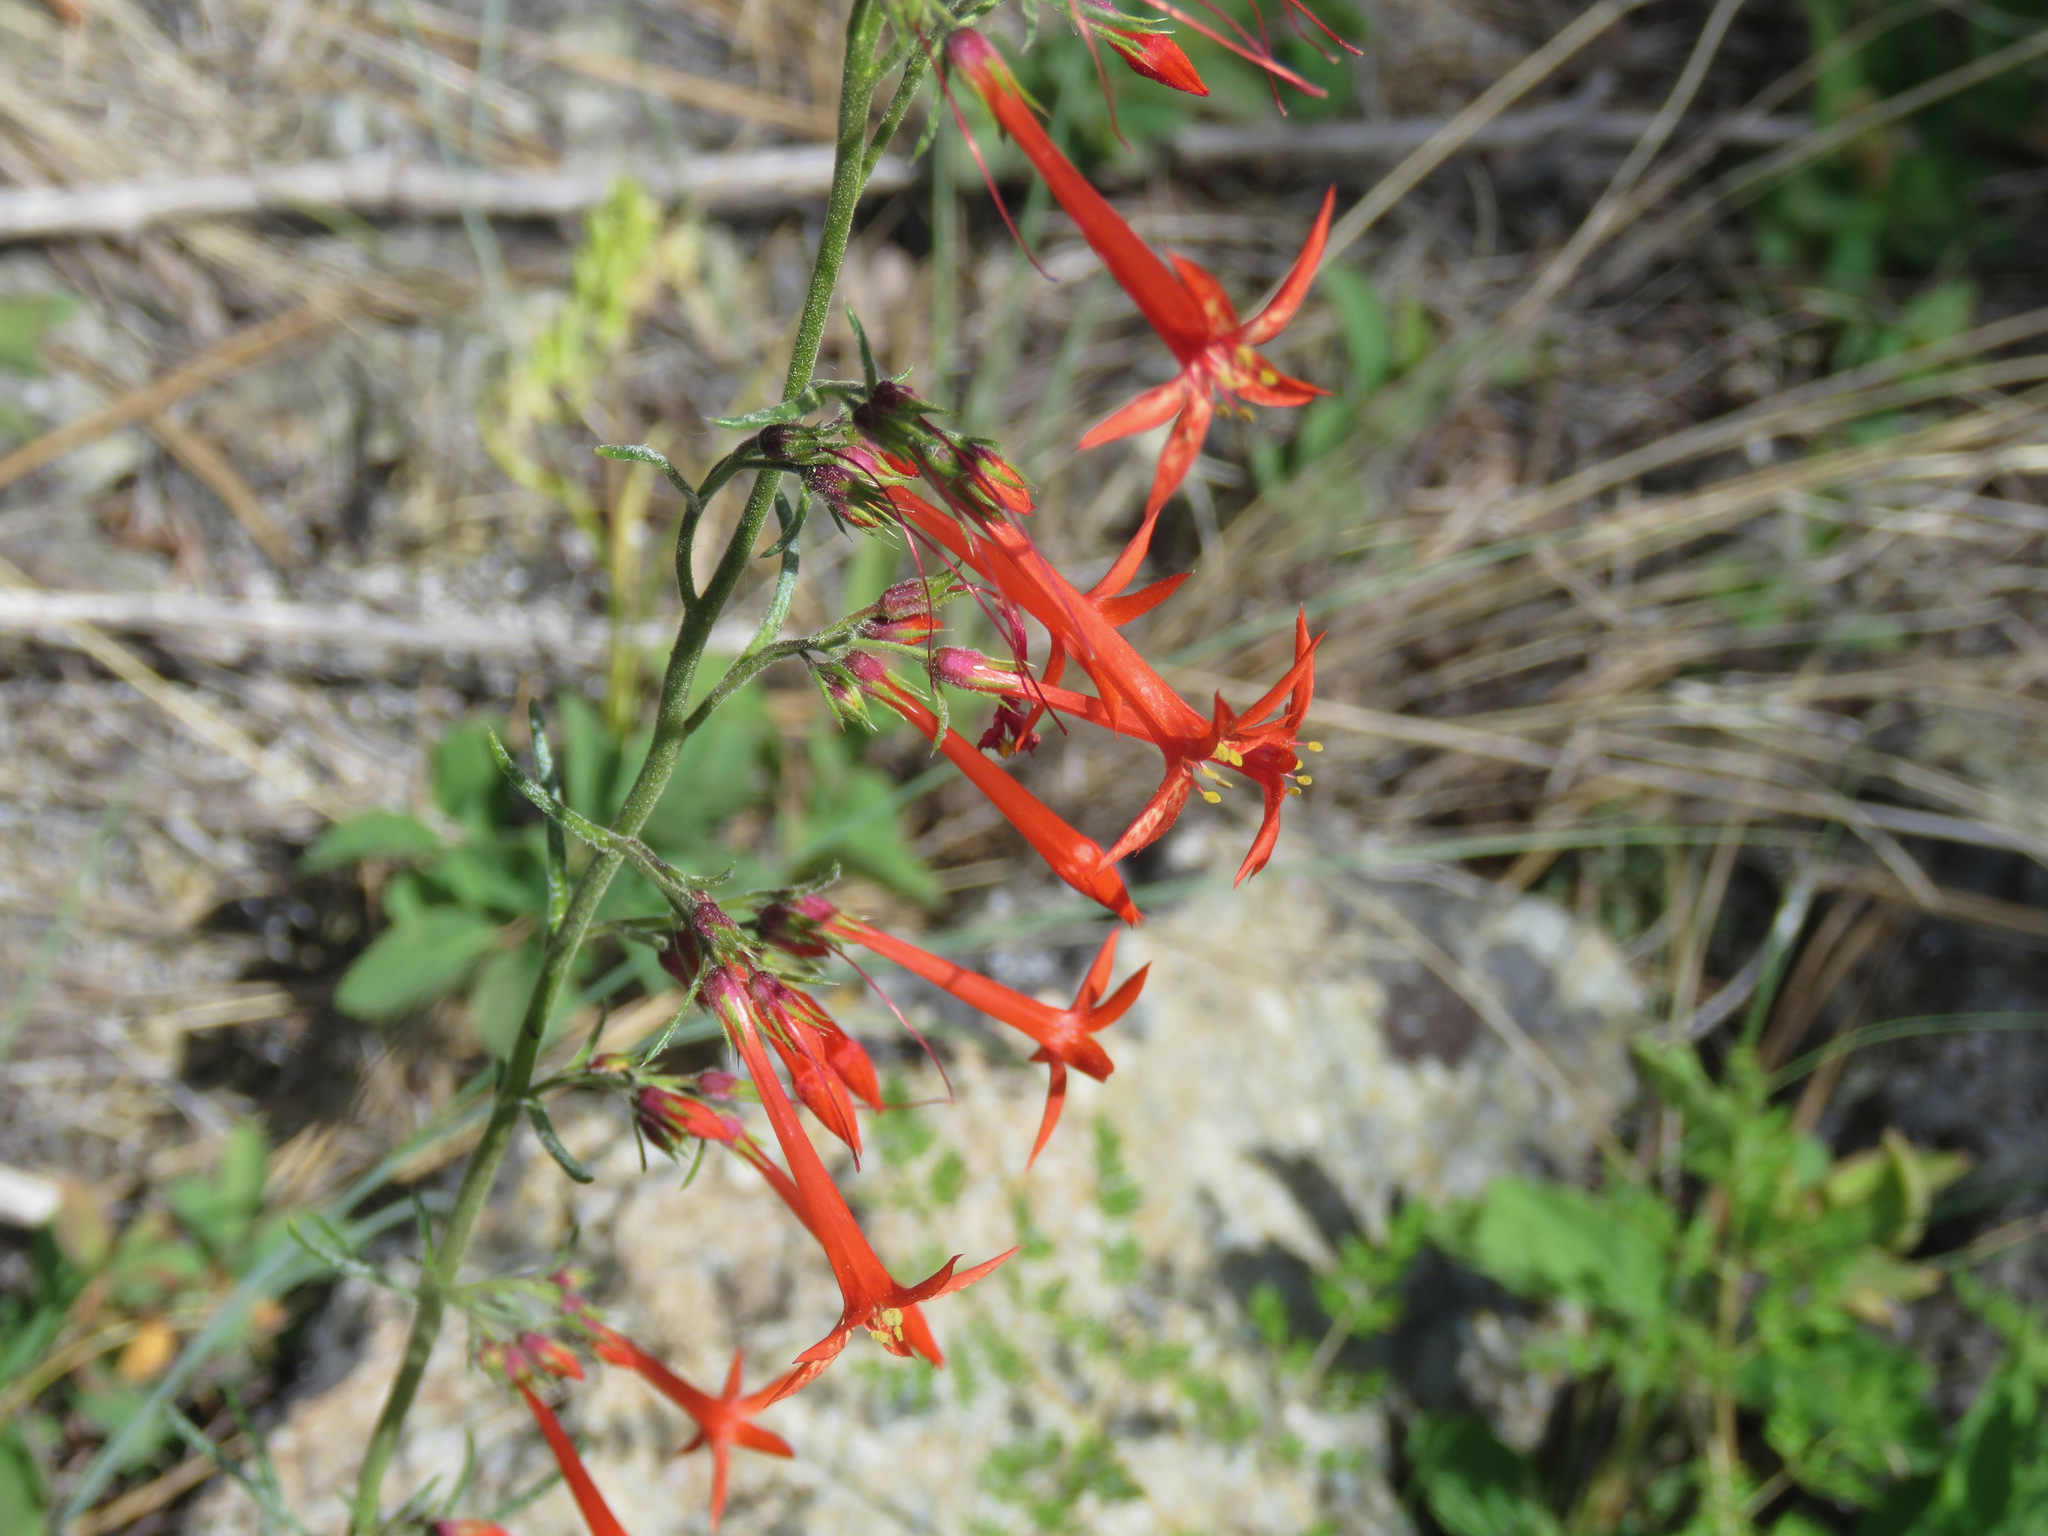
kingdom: Plantae
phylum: Tracheophyta
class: Magnoliopsida
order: Ericales
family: Polemoniaceae
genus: Ipomopsis
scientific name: Ipomopsis aggregata
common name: Scarlet gilia
